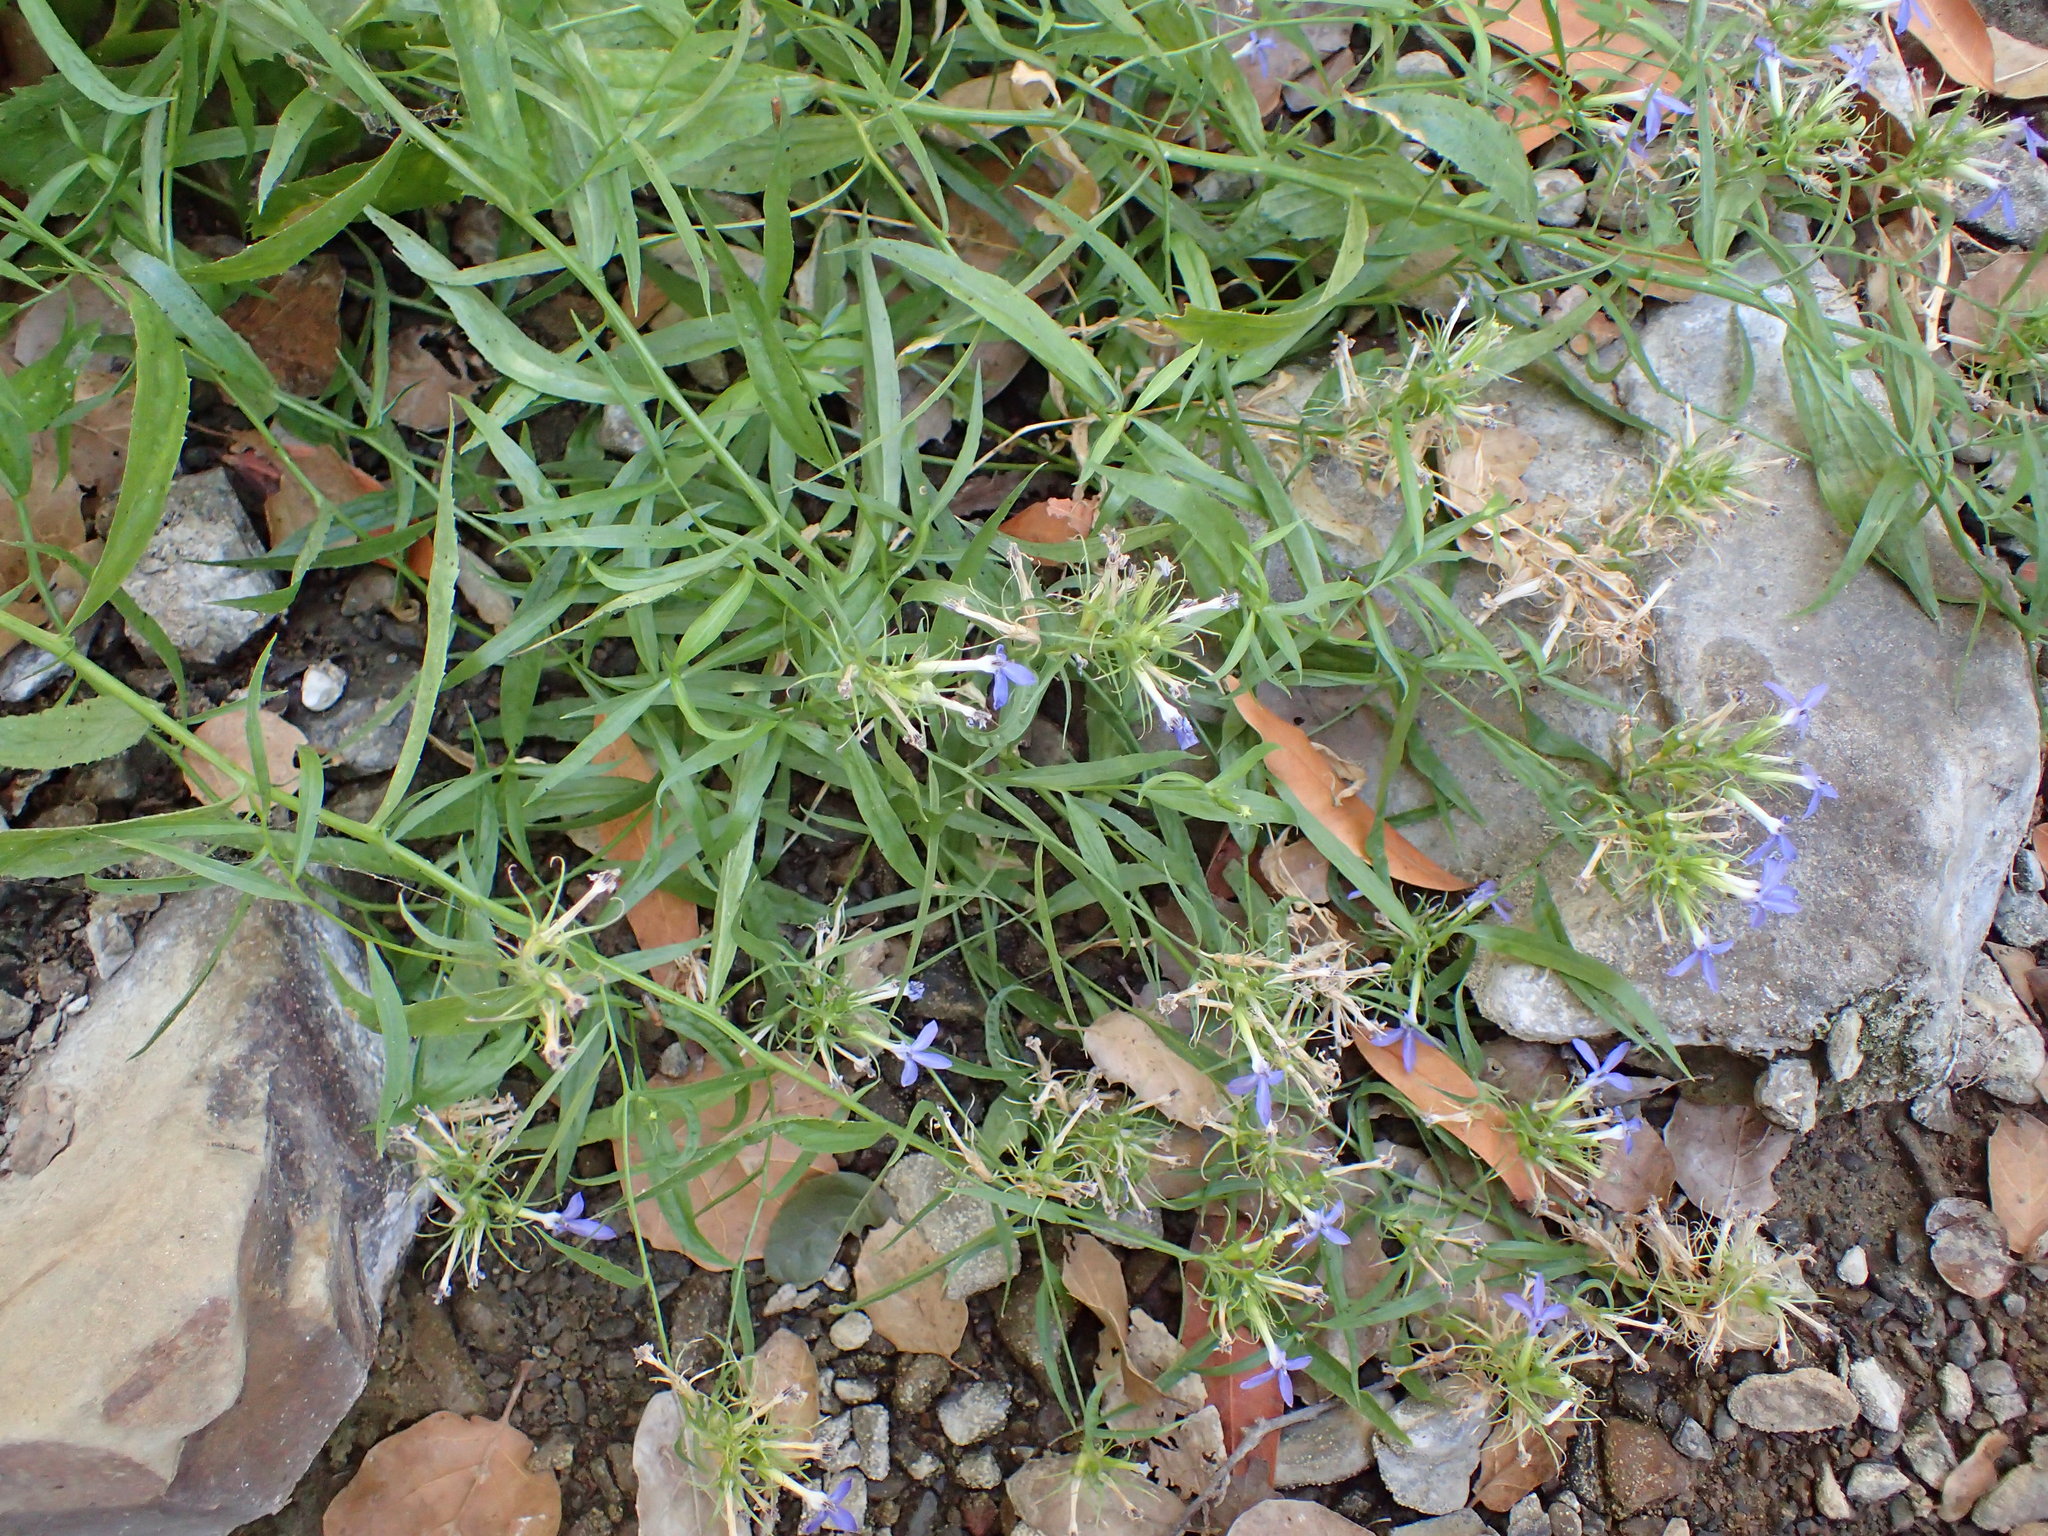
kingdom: Plantae
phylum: Tracheophyta
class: Magnoliopsida
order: Asterales
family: Campanulaceae
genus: Palmerella
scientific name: Palmerella debilis
